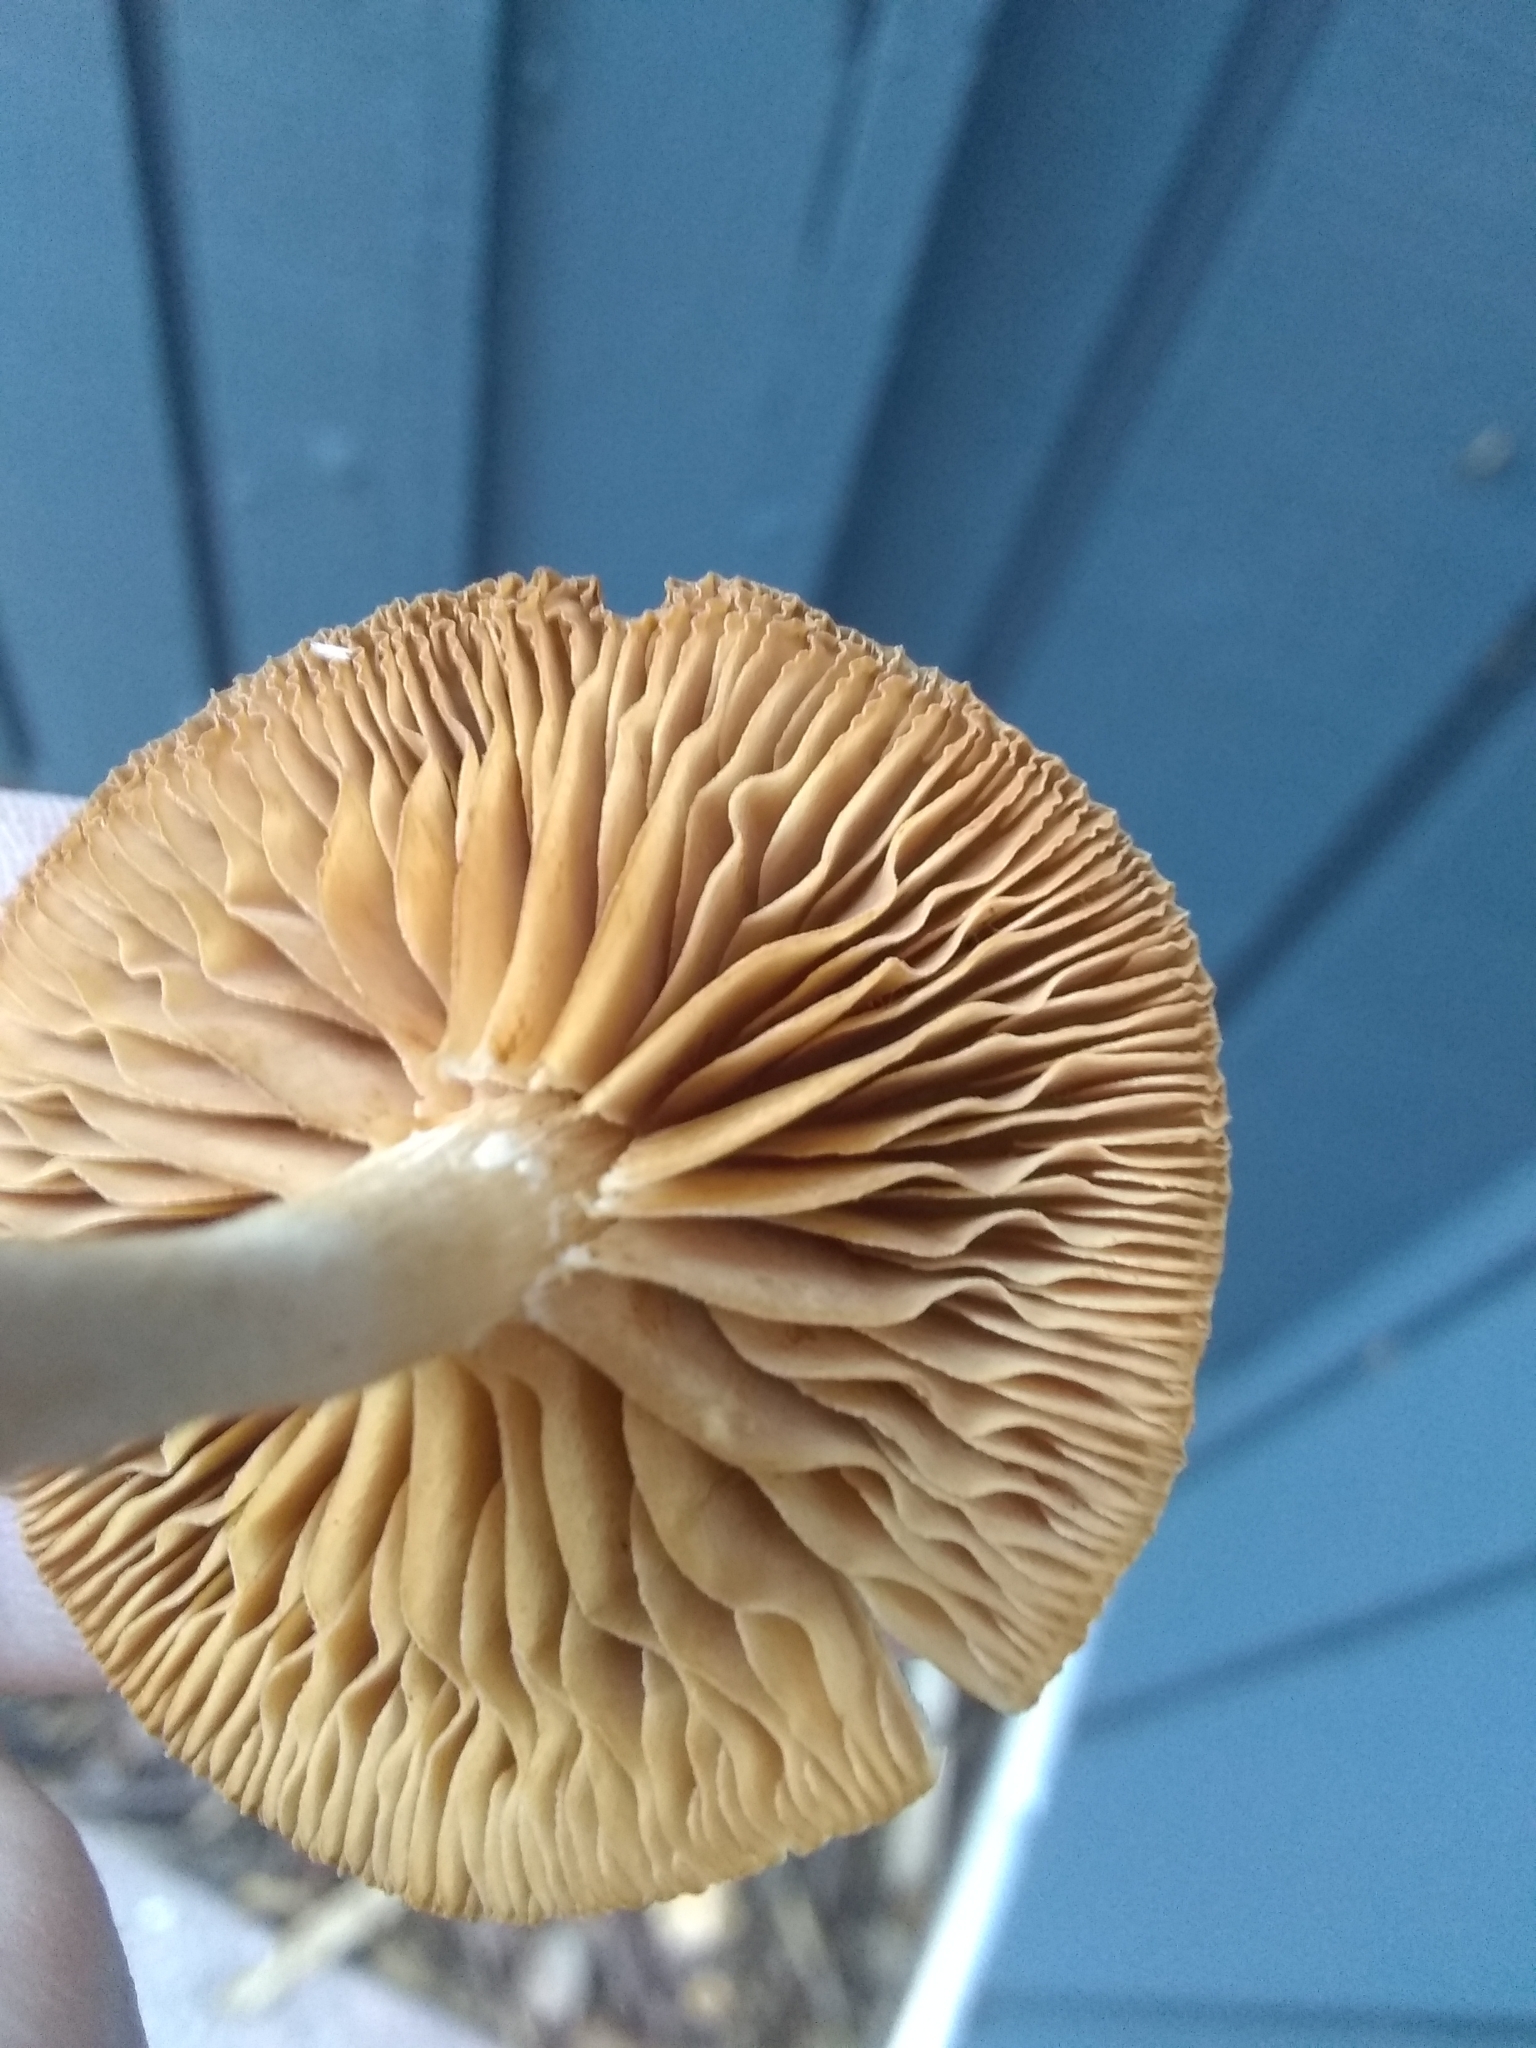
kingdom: Fungi
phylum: Basidiomycota
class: Agaricomycetes
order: Agaricales
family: Tubariaceae
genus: Tubaria
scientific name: Tubaria furfuracea
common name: Scurfy twiglet
